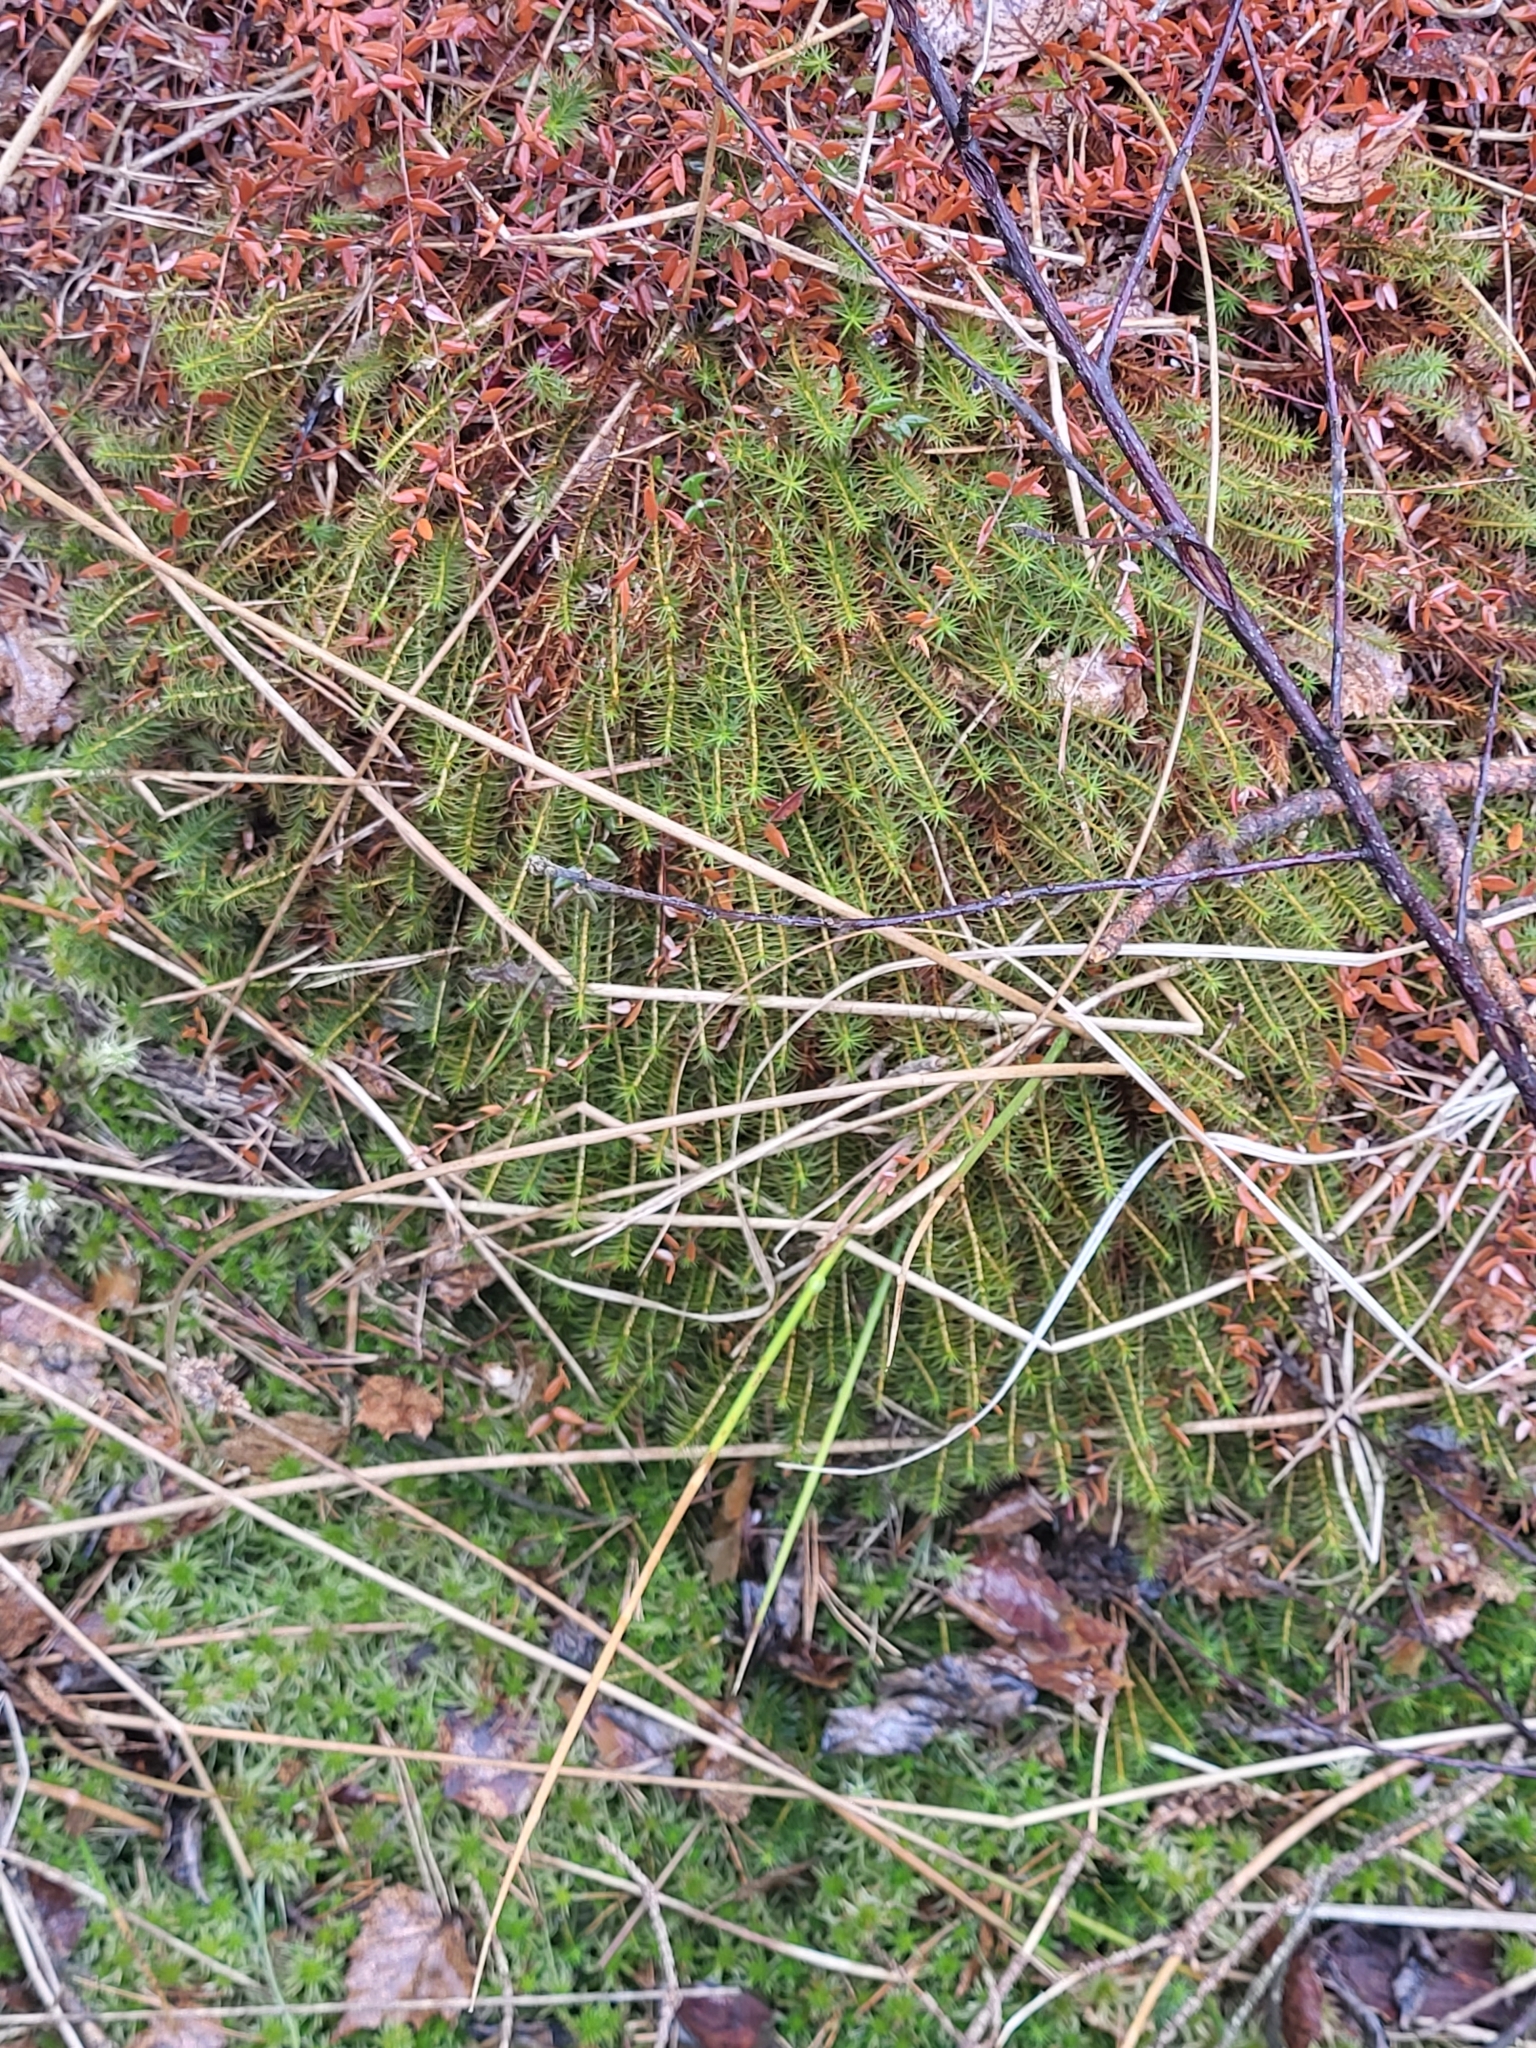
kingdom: Plantae
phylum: Bryophyta
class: Polytrichopsida
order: Polytrichales
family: Polytrichaceae
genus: Polytrichum
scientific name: Polytrichum commune
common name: Common haircap
